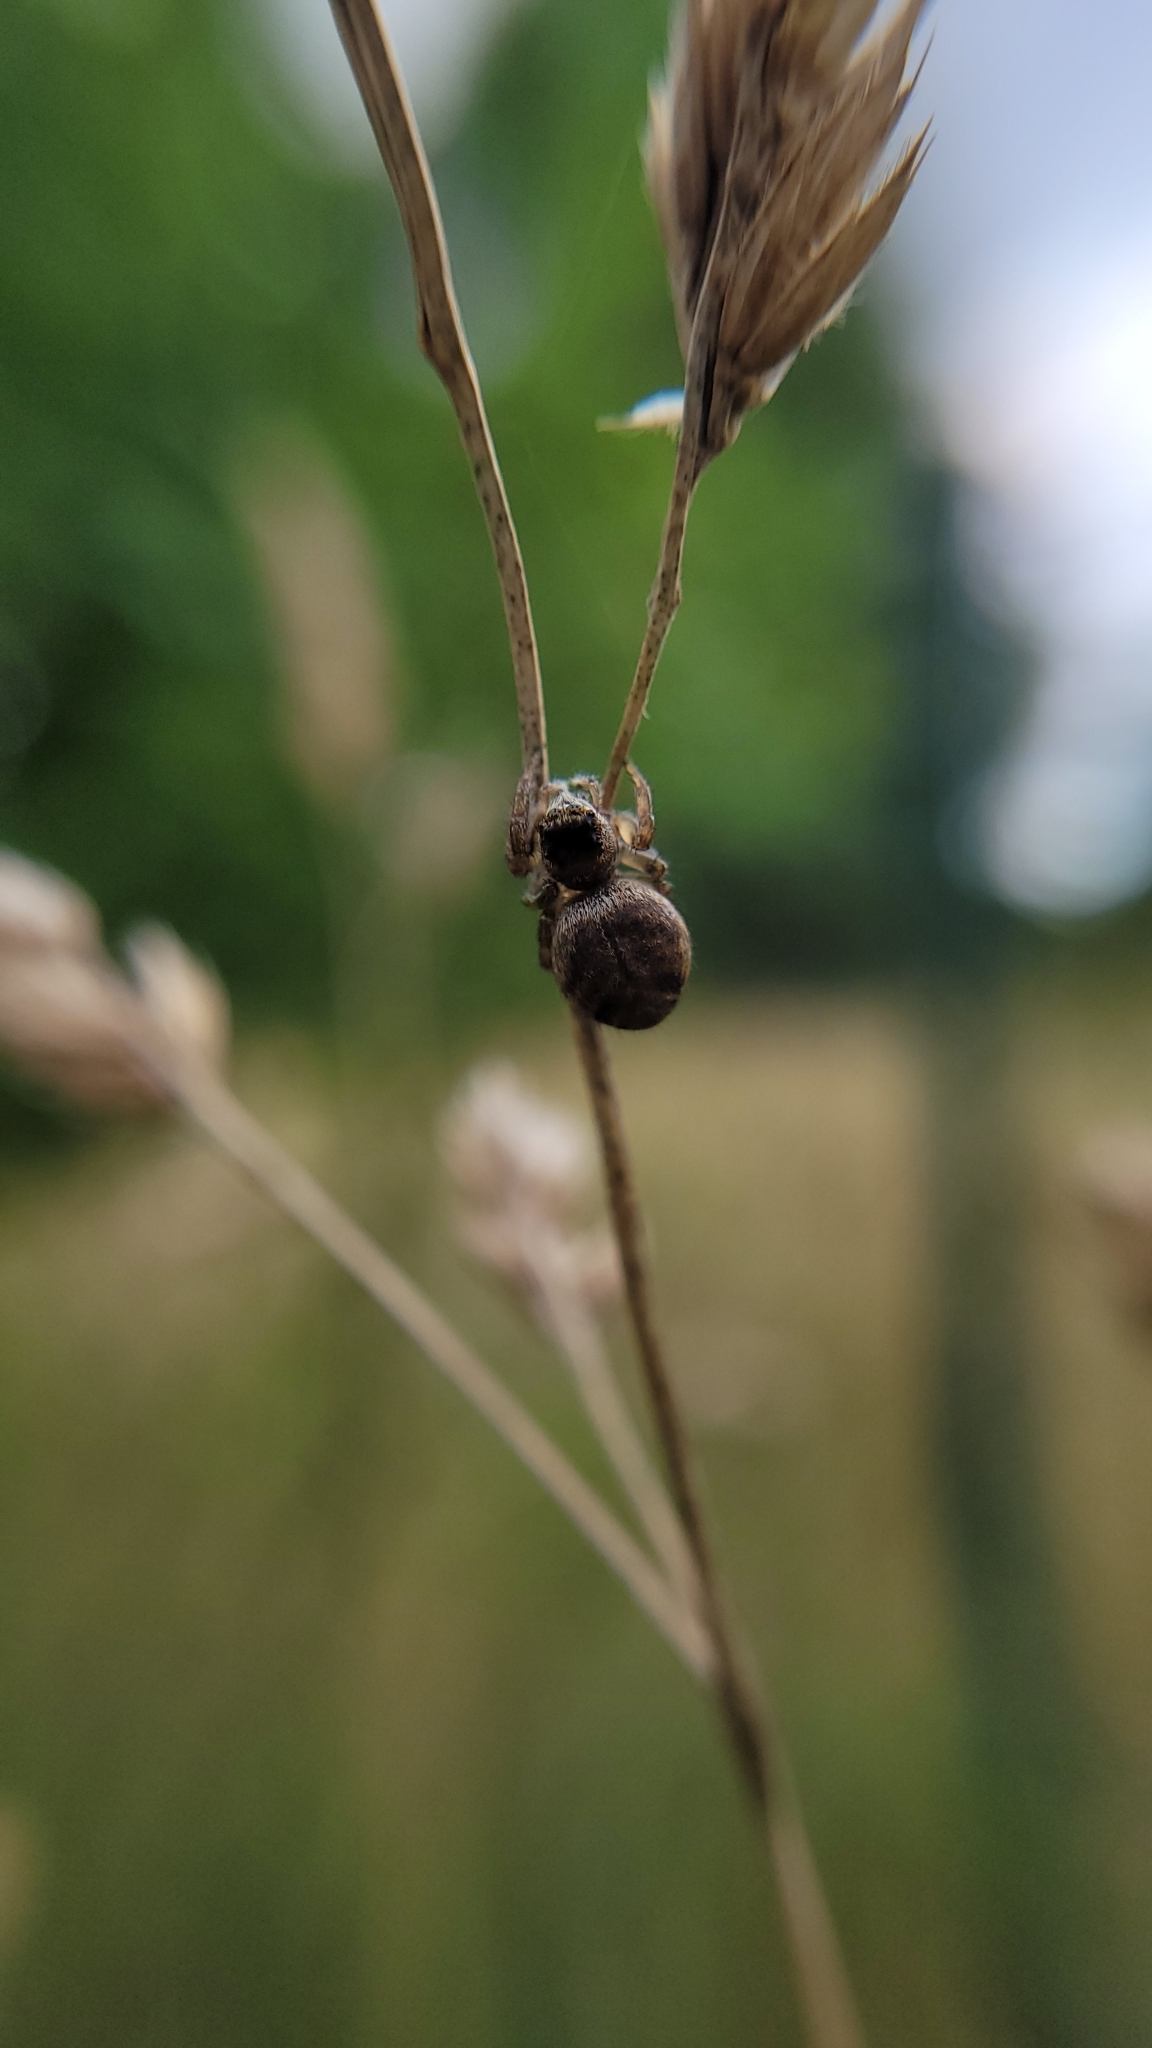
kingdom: Animalia
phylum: Arthropoda
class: Arachnida
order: Araneae
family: Salticidae
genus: Evarcha
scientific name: Evarcha arcuata
